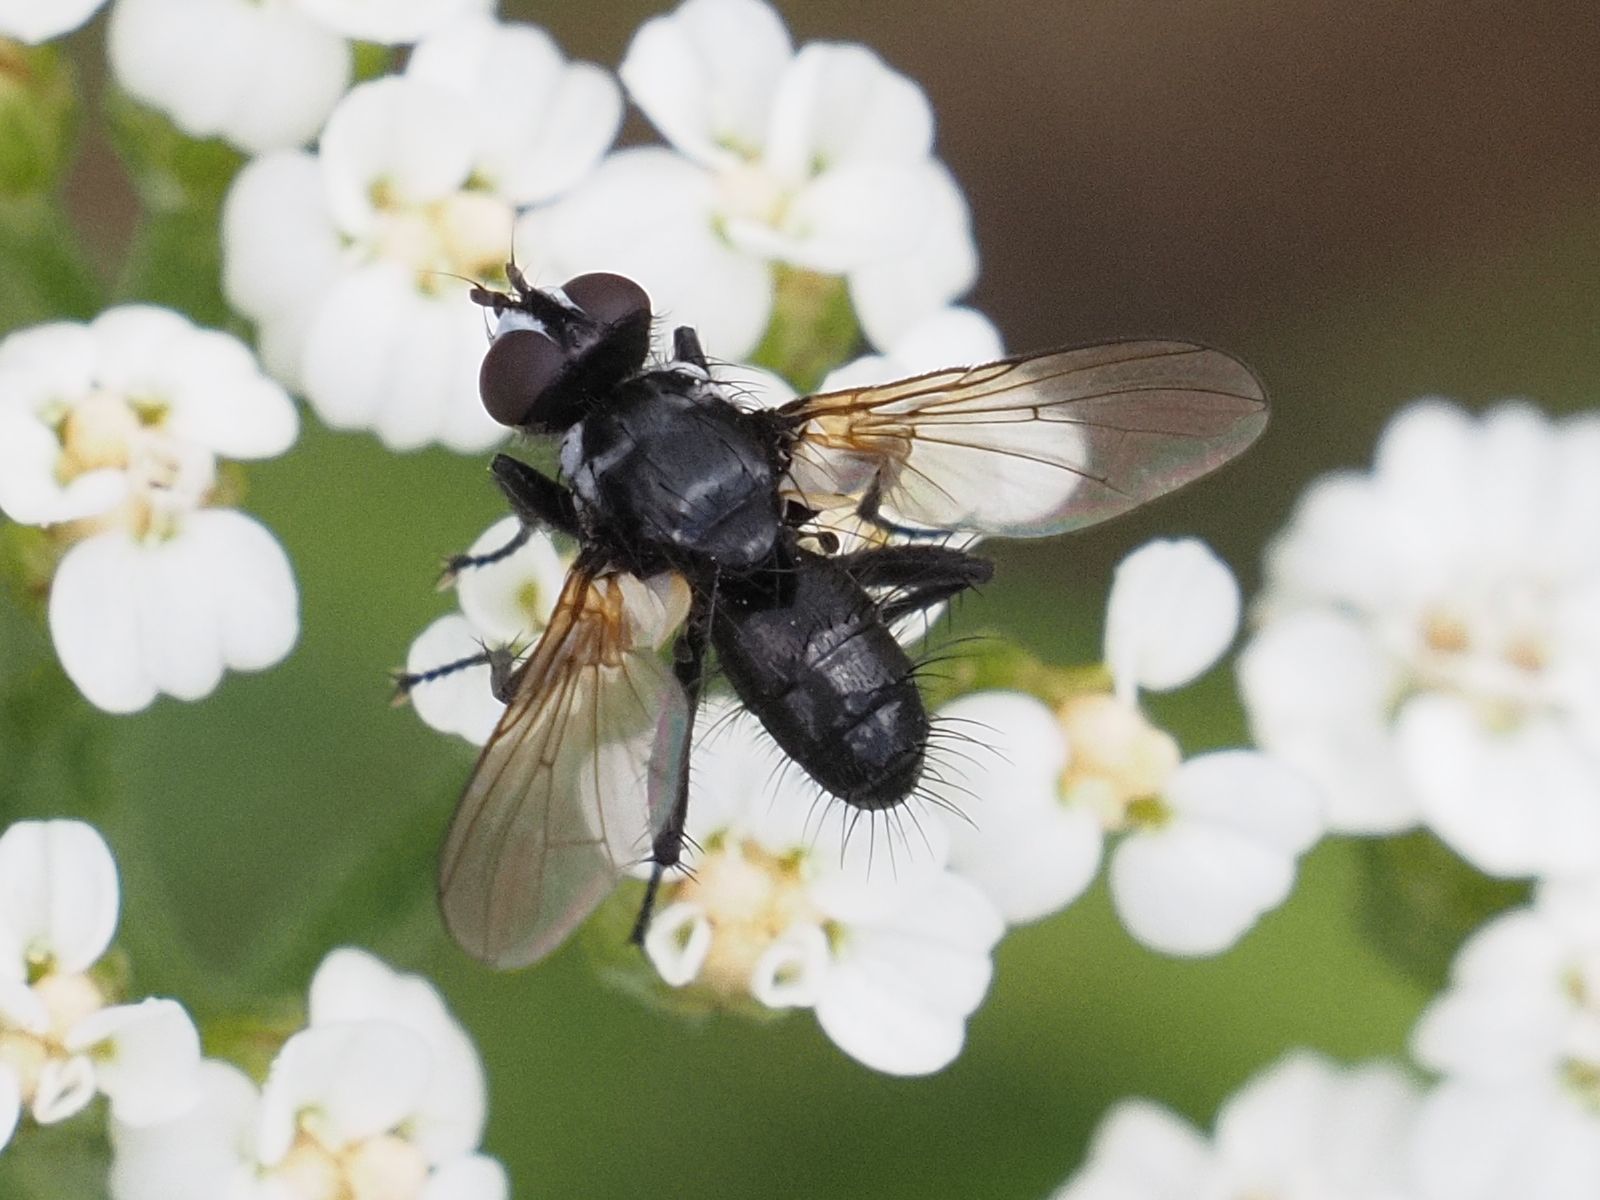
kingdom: Animalia
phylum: Arthropoda
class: Insecta
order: Diptera
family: Tachinidae
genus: Phania
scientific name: Phania funesta
